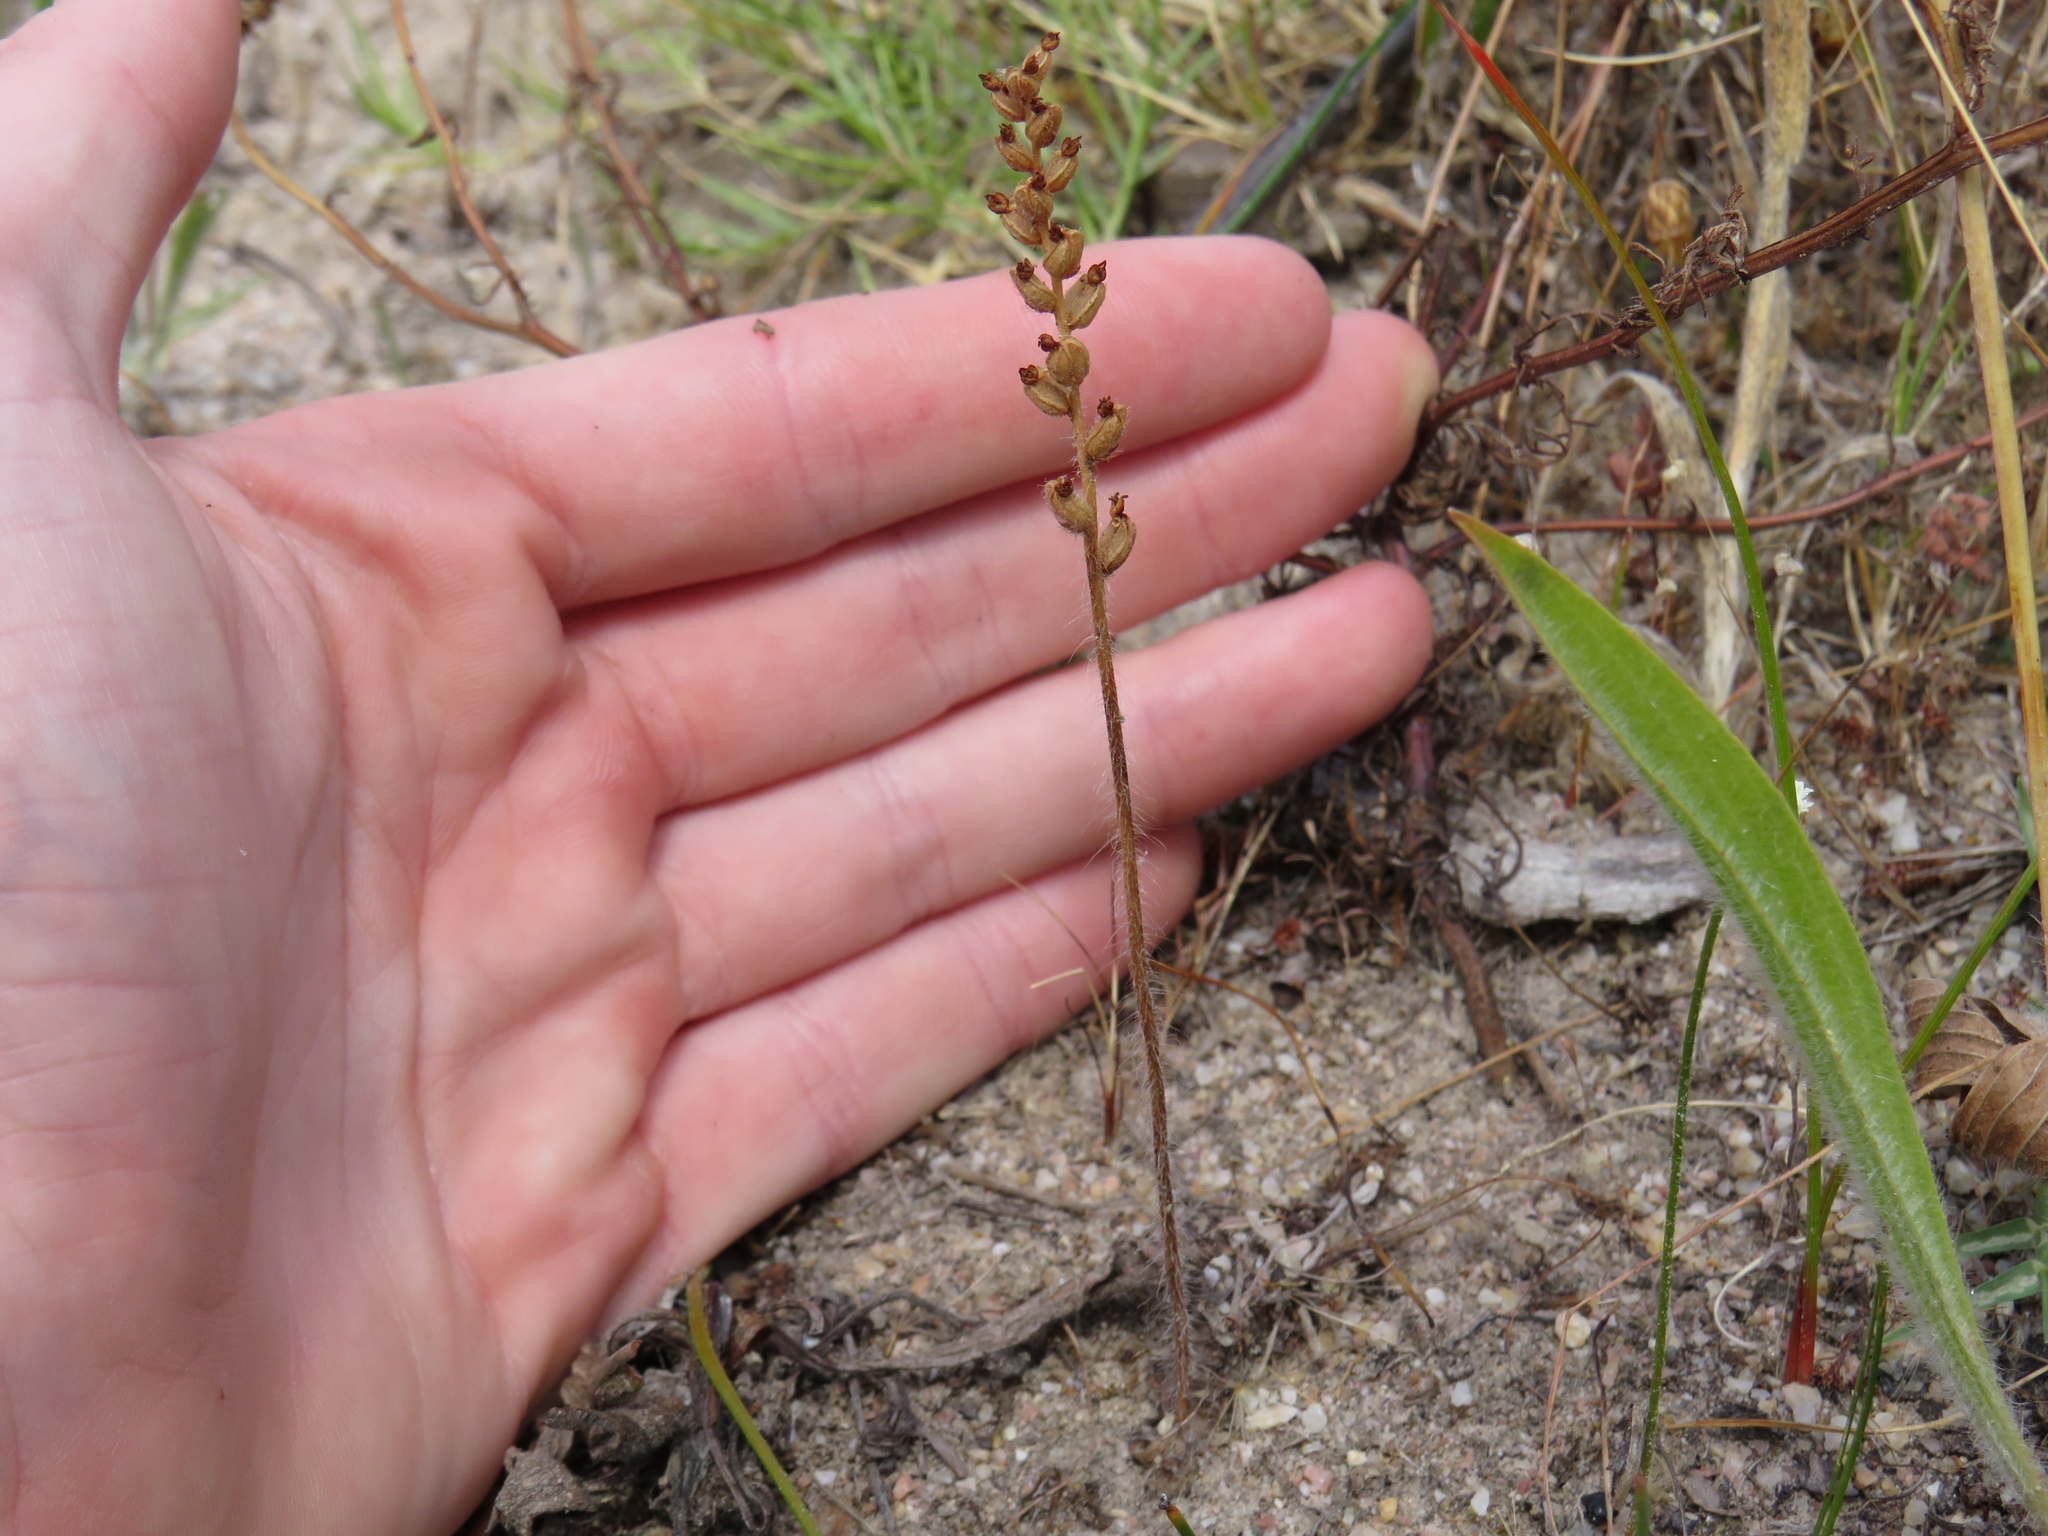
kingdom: Plantae
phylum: Tracheophyta
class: Liliopsida
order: Asparagales
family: Orchidaceae
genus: Holothrix
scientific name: Holothrix villosa
